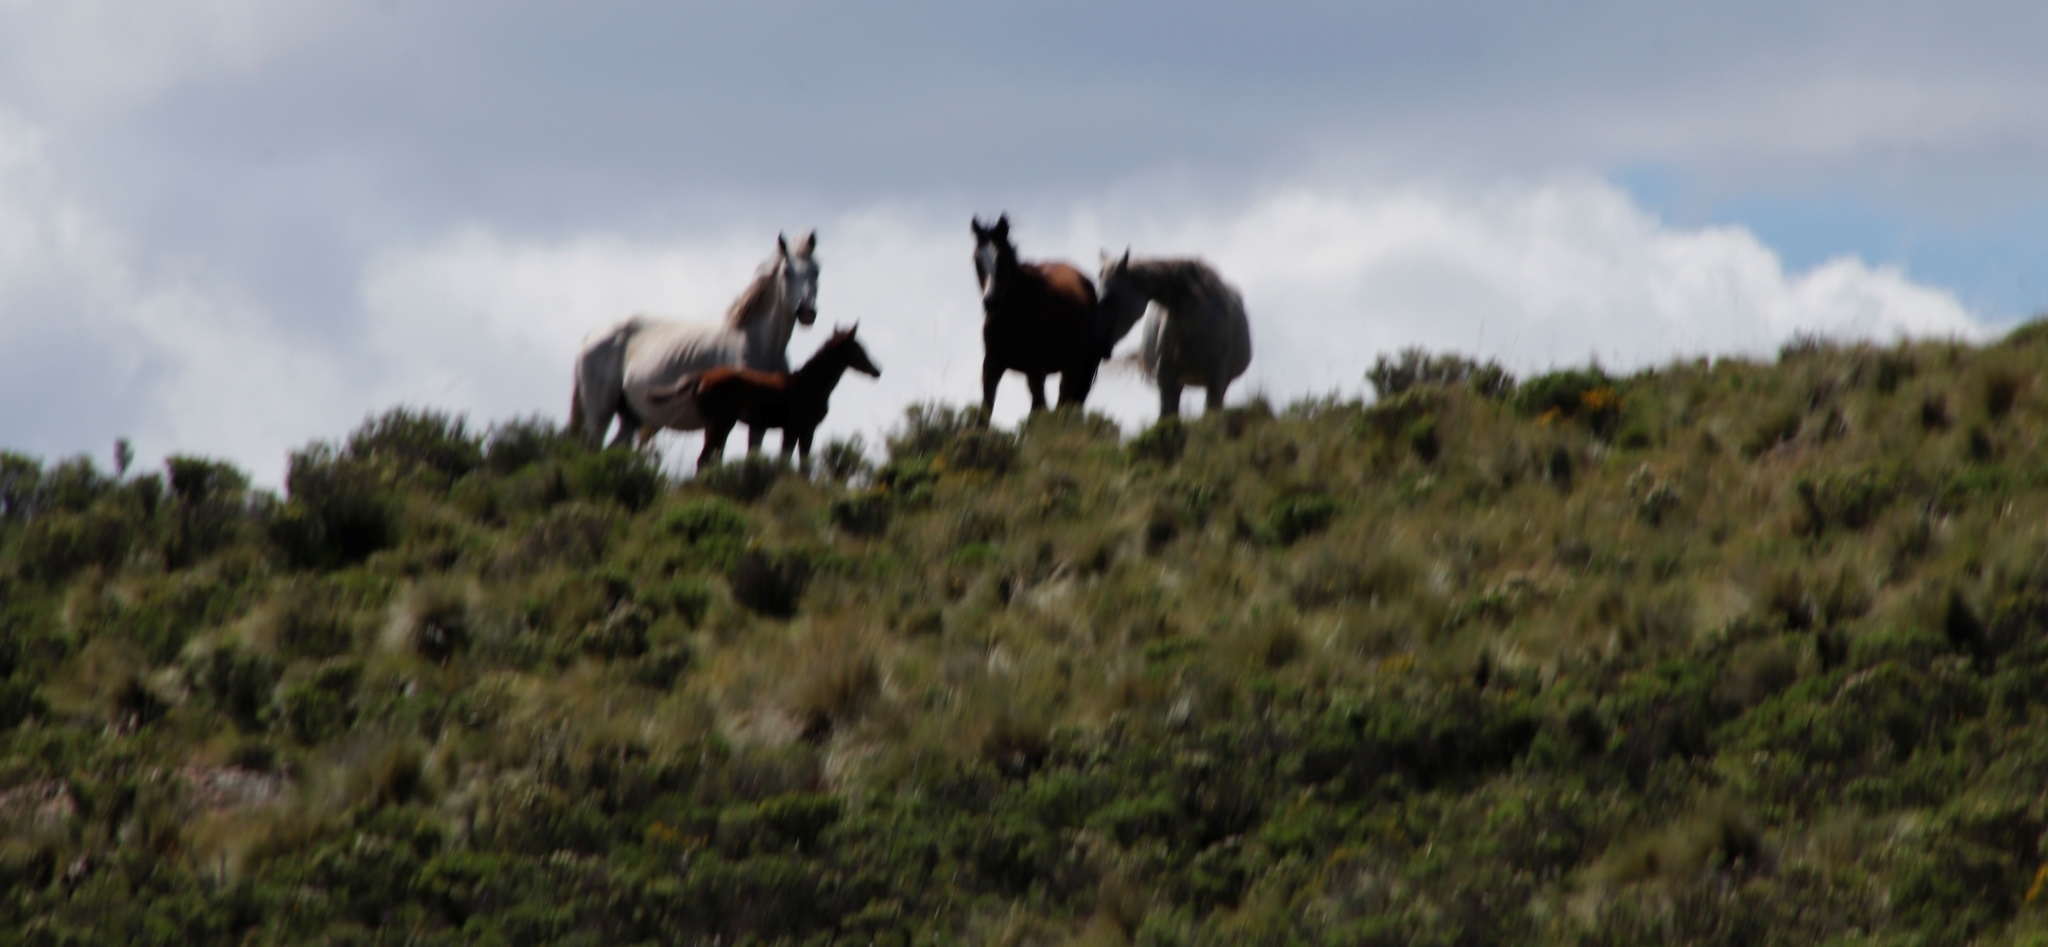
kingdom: Animalia
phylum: Chordata
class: Mammalia
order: Perissodactyla
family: Equidae
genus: Equus
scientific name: Equus caballus
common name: Horse
